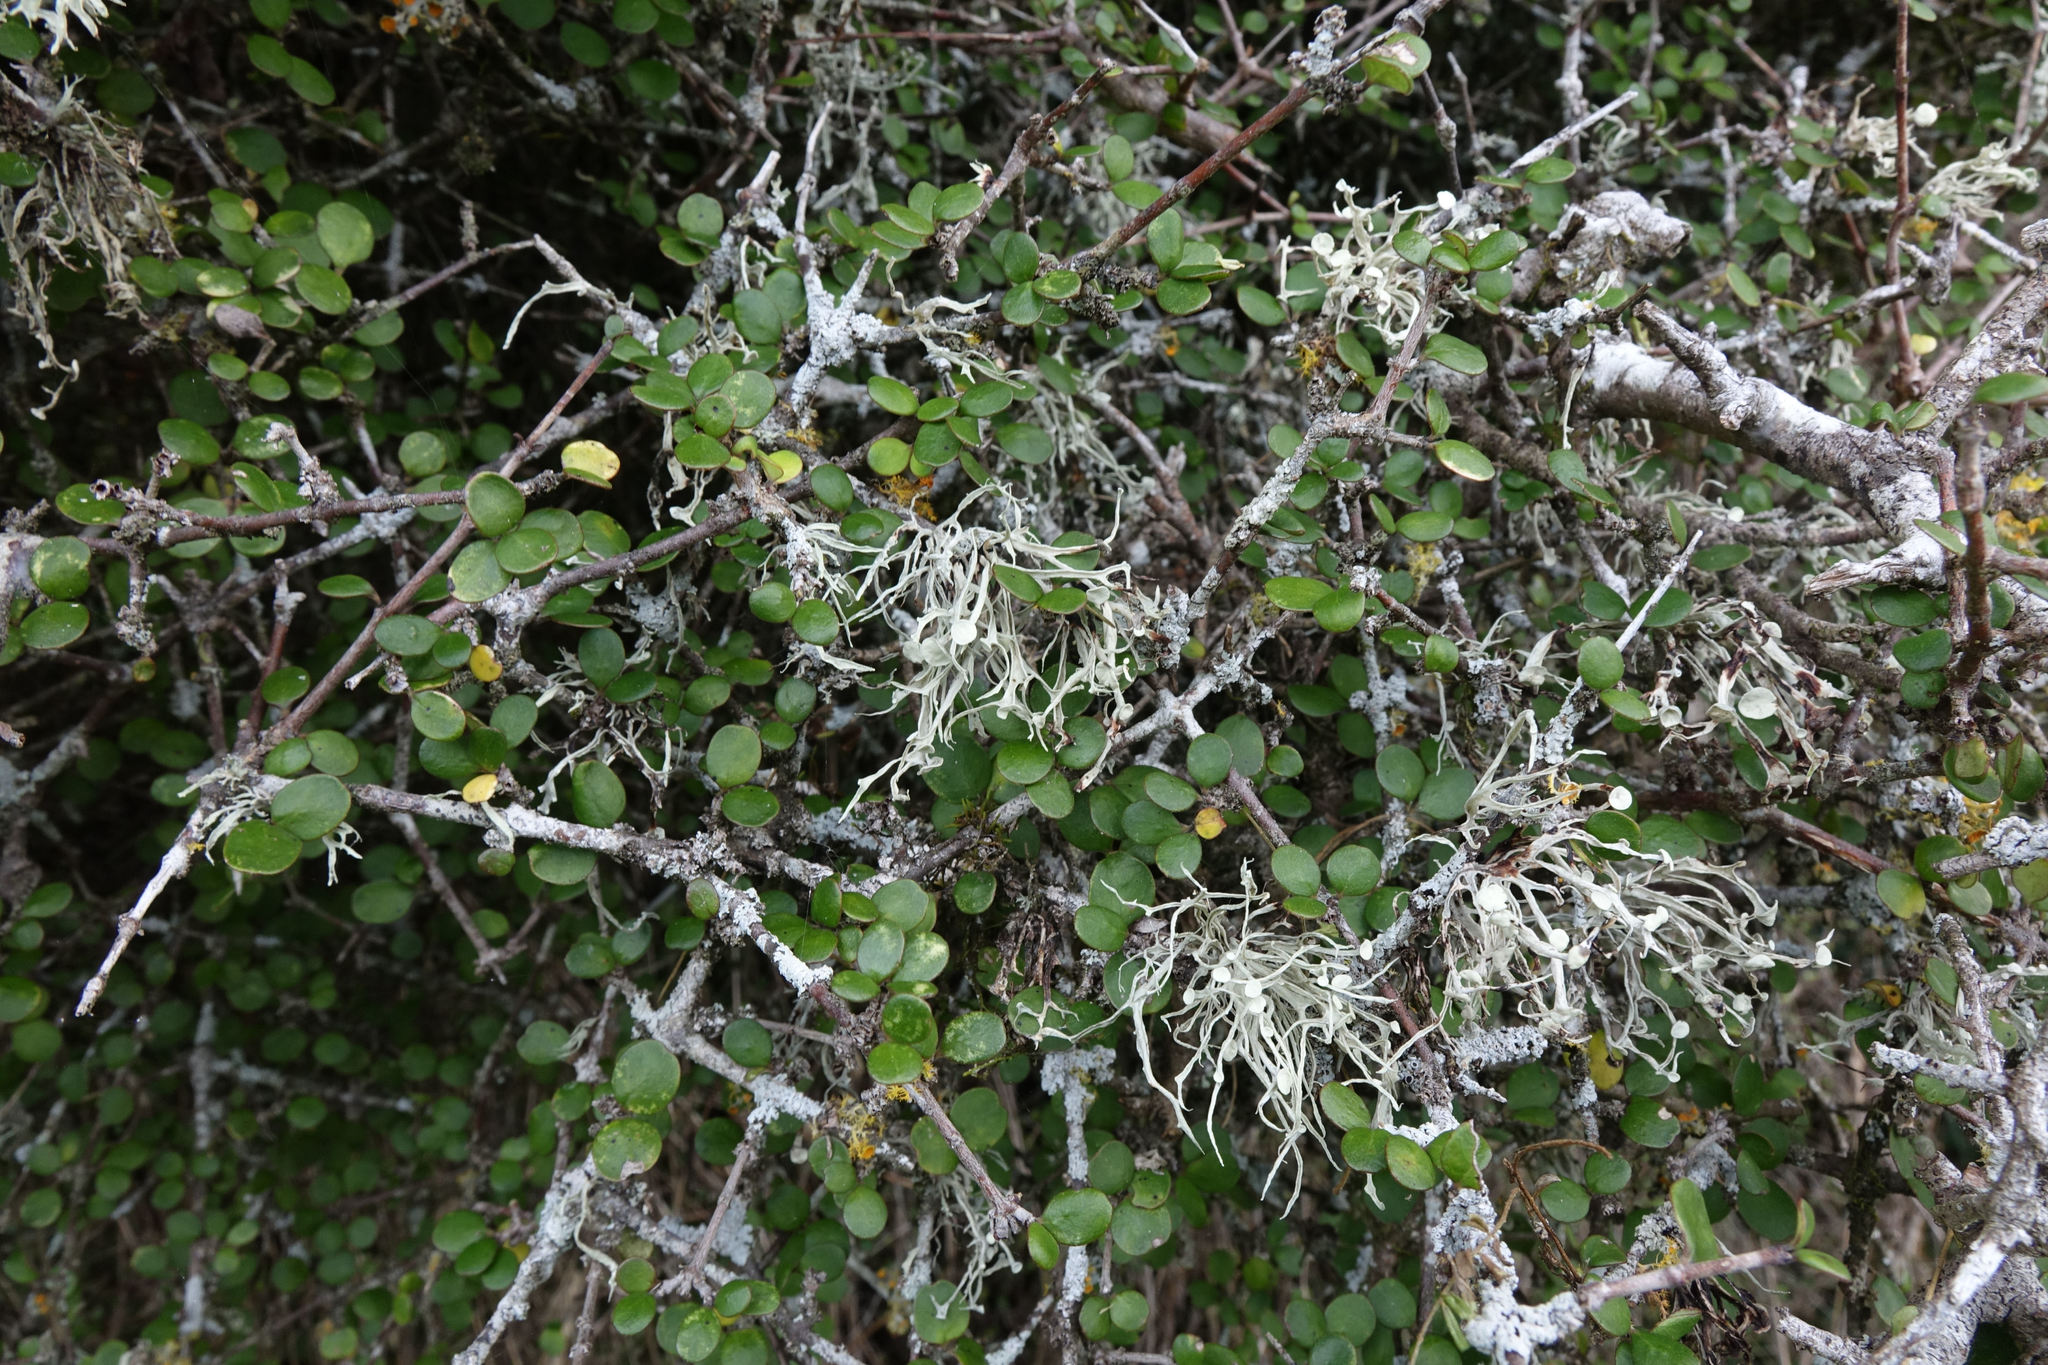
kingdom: Plantae
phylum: Tracheophyta
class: Magnoliopsida
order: Gentianales
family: Rubiaceae
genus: Coprosma
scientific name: Coprosma crassifolia
